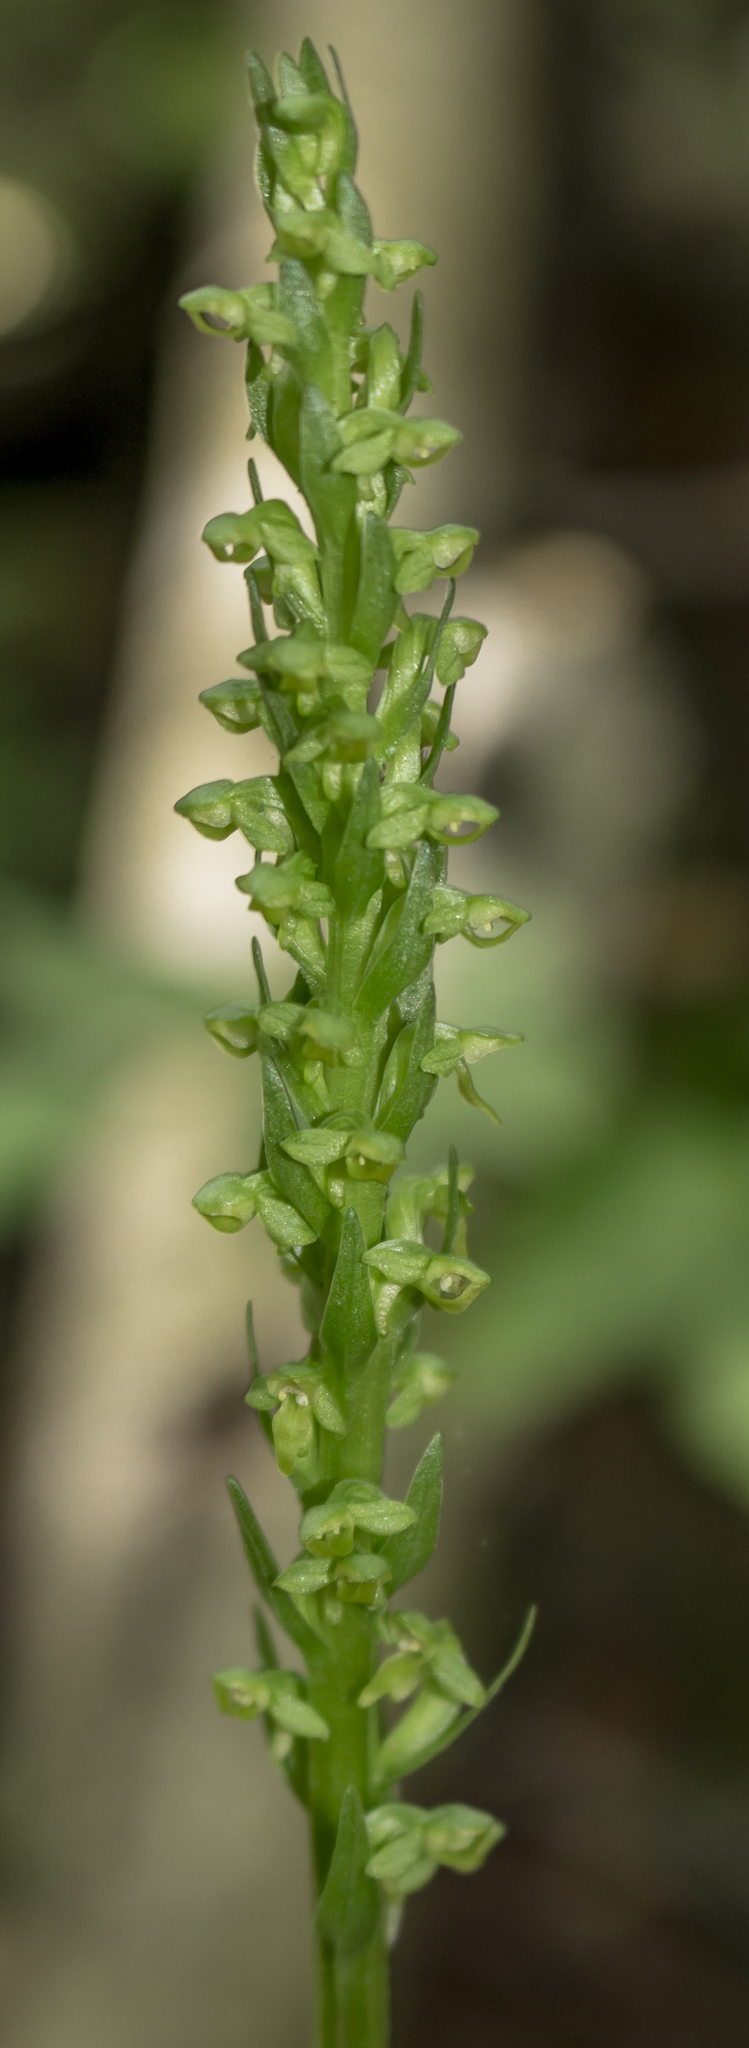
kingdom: Plantae
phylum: Tracheophyta
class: Liliopsida
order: Asparagales
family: Orchidaceae
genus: Platanthera
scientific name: Platanthera aquilonis
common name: Northern green orchid
